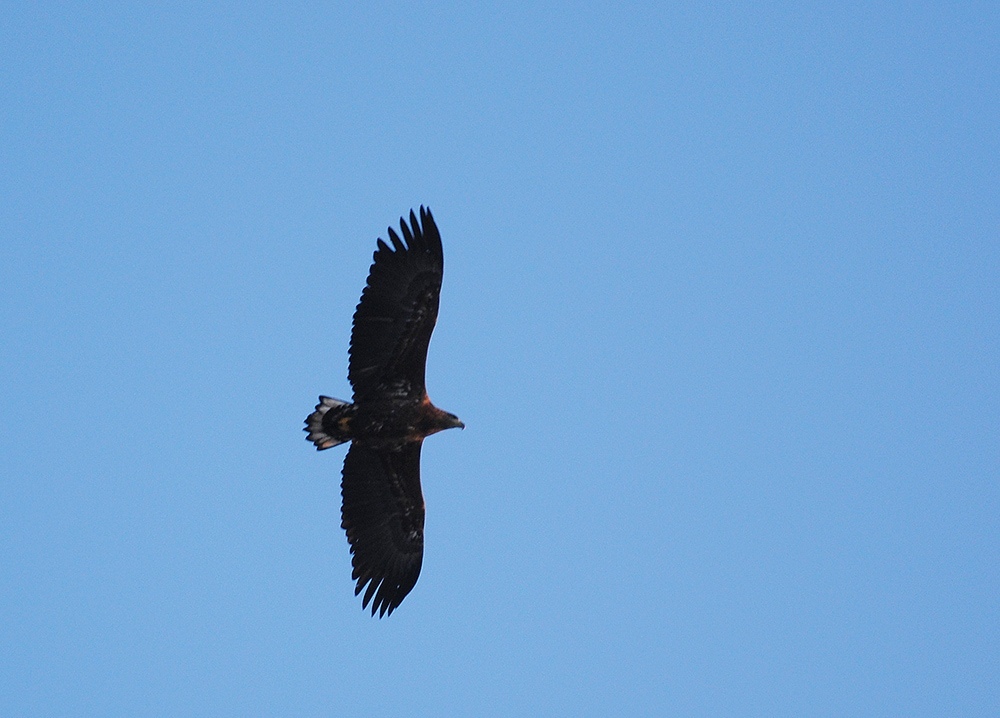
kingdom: Animalia
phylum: Chordata
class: Aves
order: Accipitriformes
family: Accipitridae
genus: Haliaeetus
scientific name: Haliaeetus albicilla
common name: White-tailed eagle
